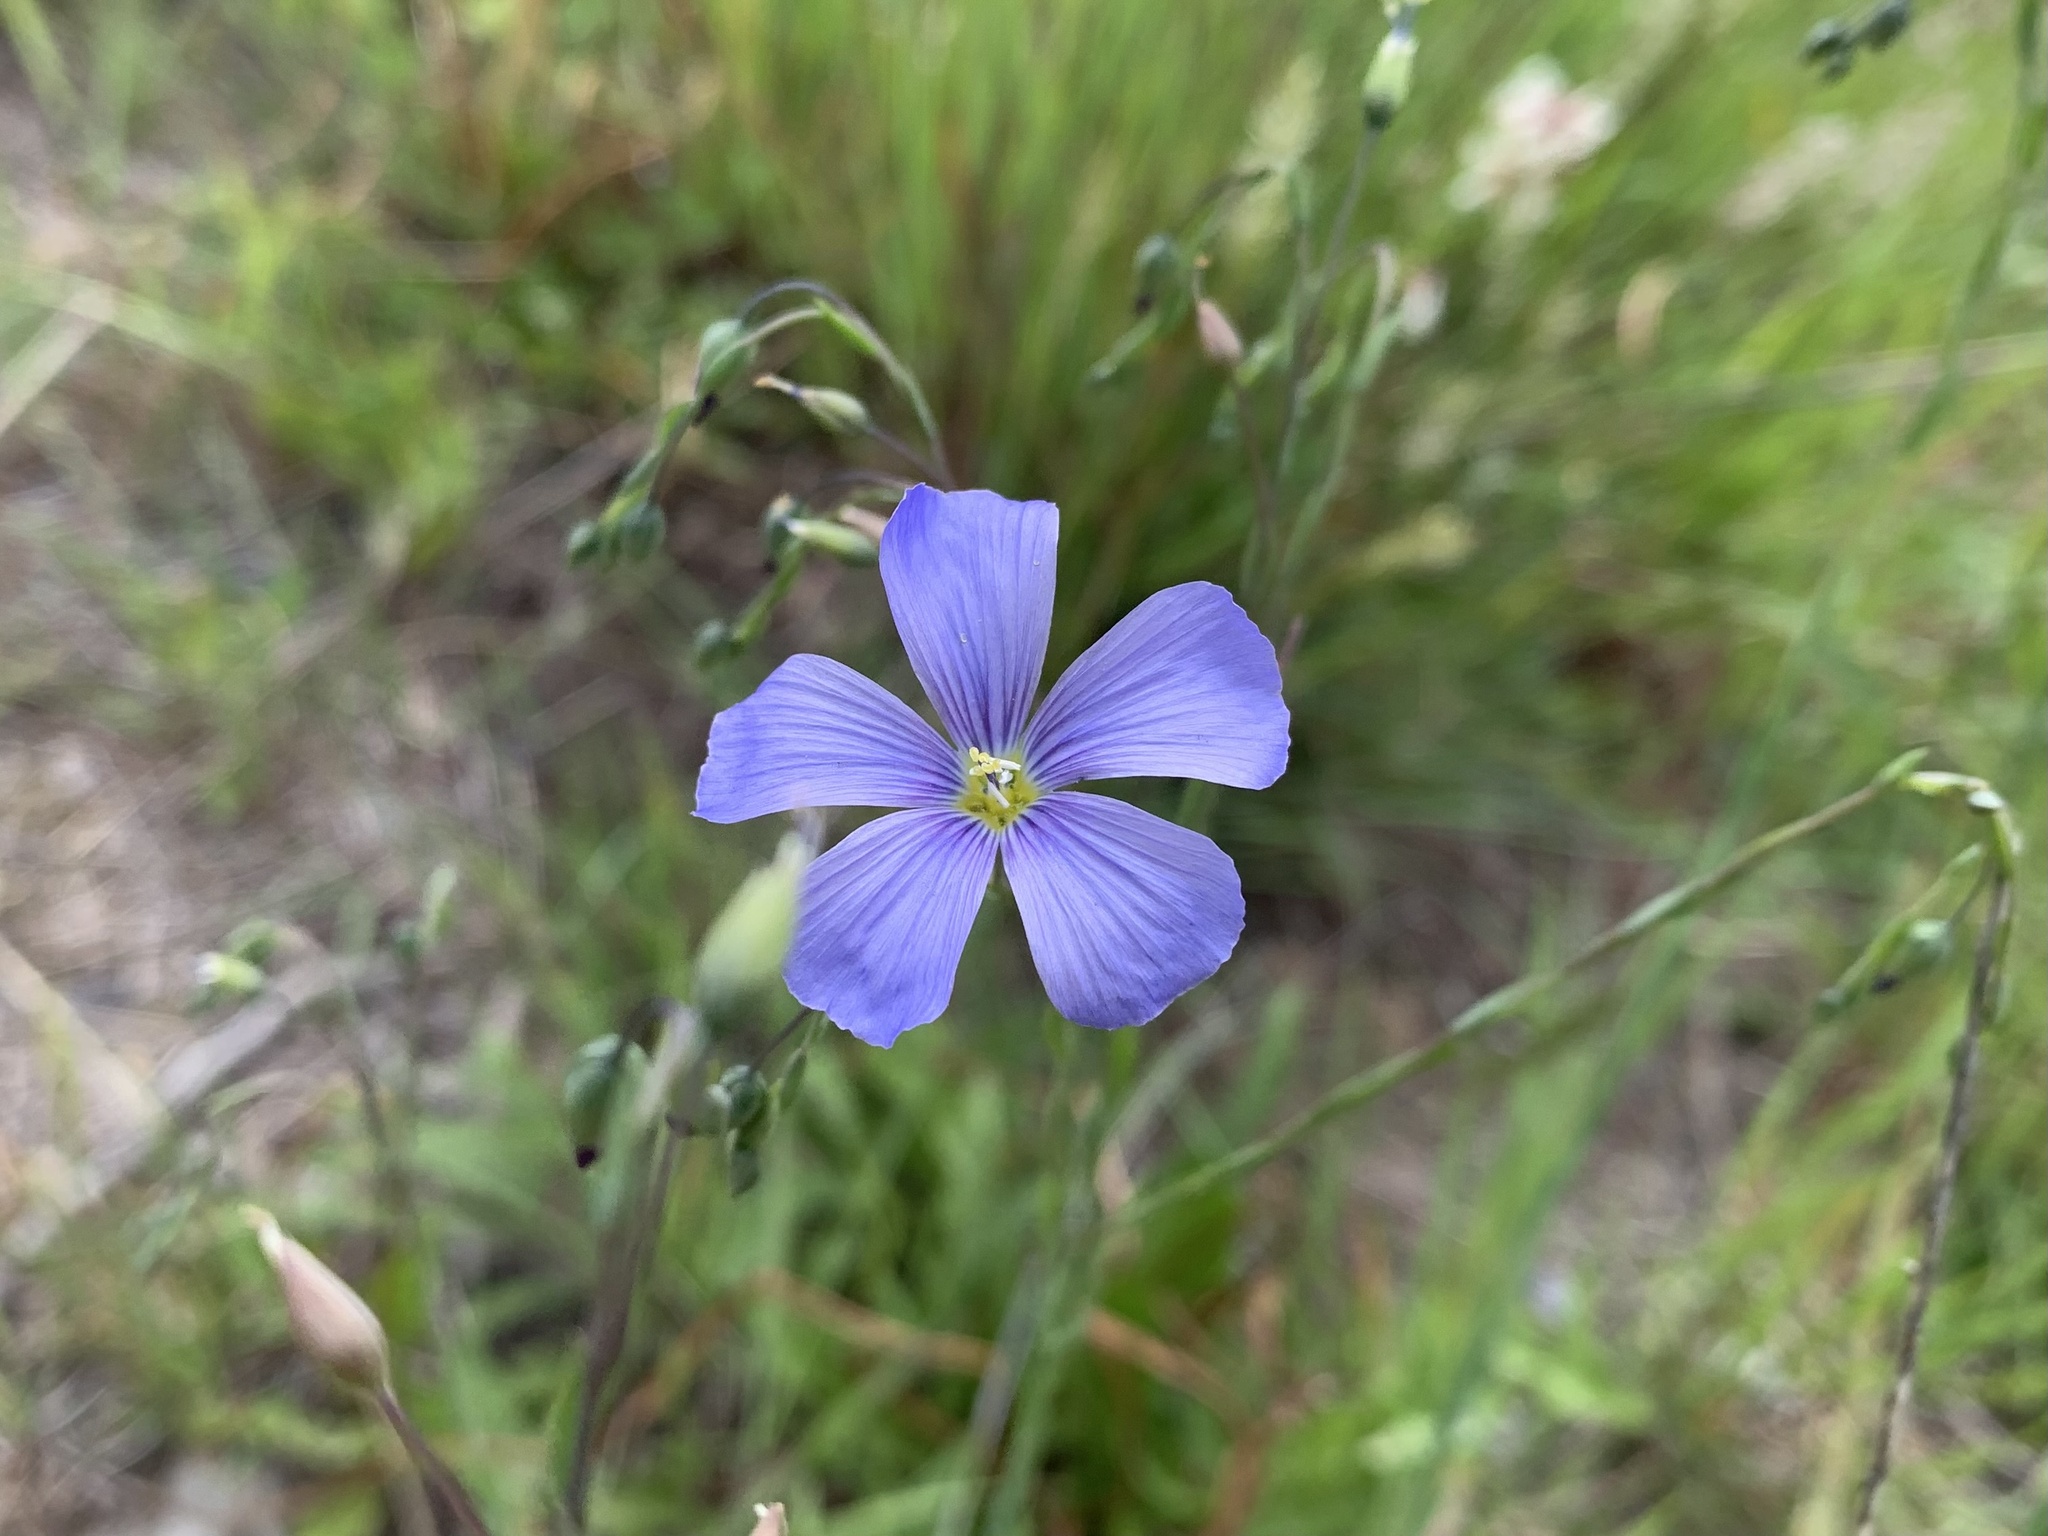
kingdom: Plantae
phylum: Tracheophyta
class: Magnoliopsida
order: Malpighiales
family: Linaceae
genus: Linum
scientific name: Linum lewisii
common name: Prairie flax
